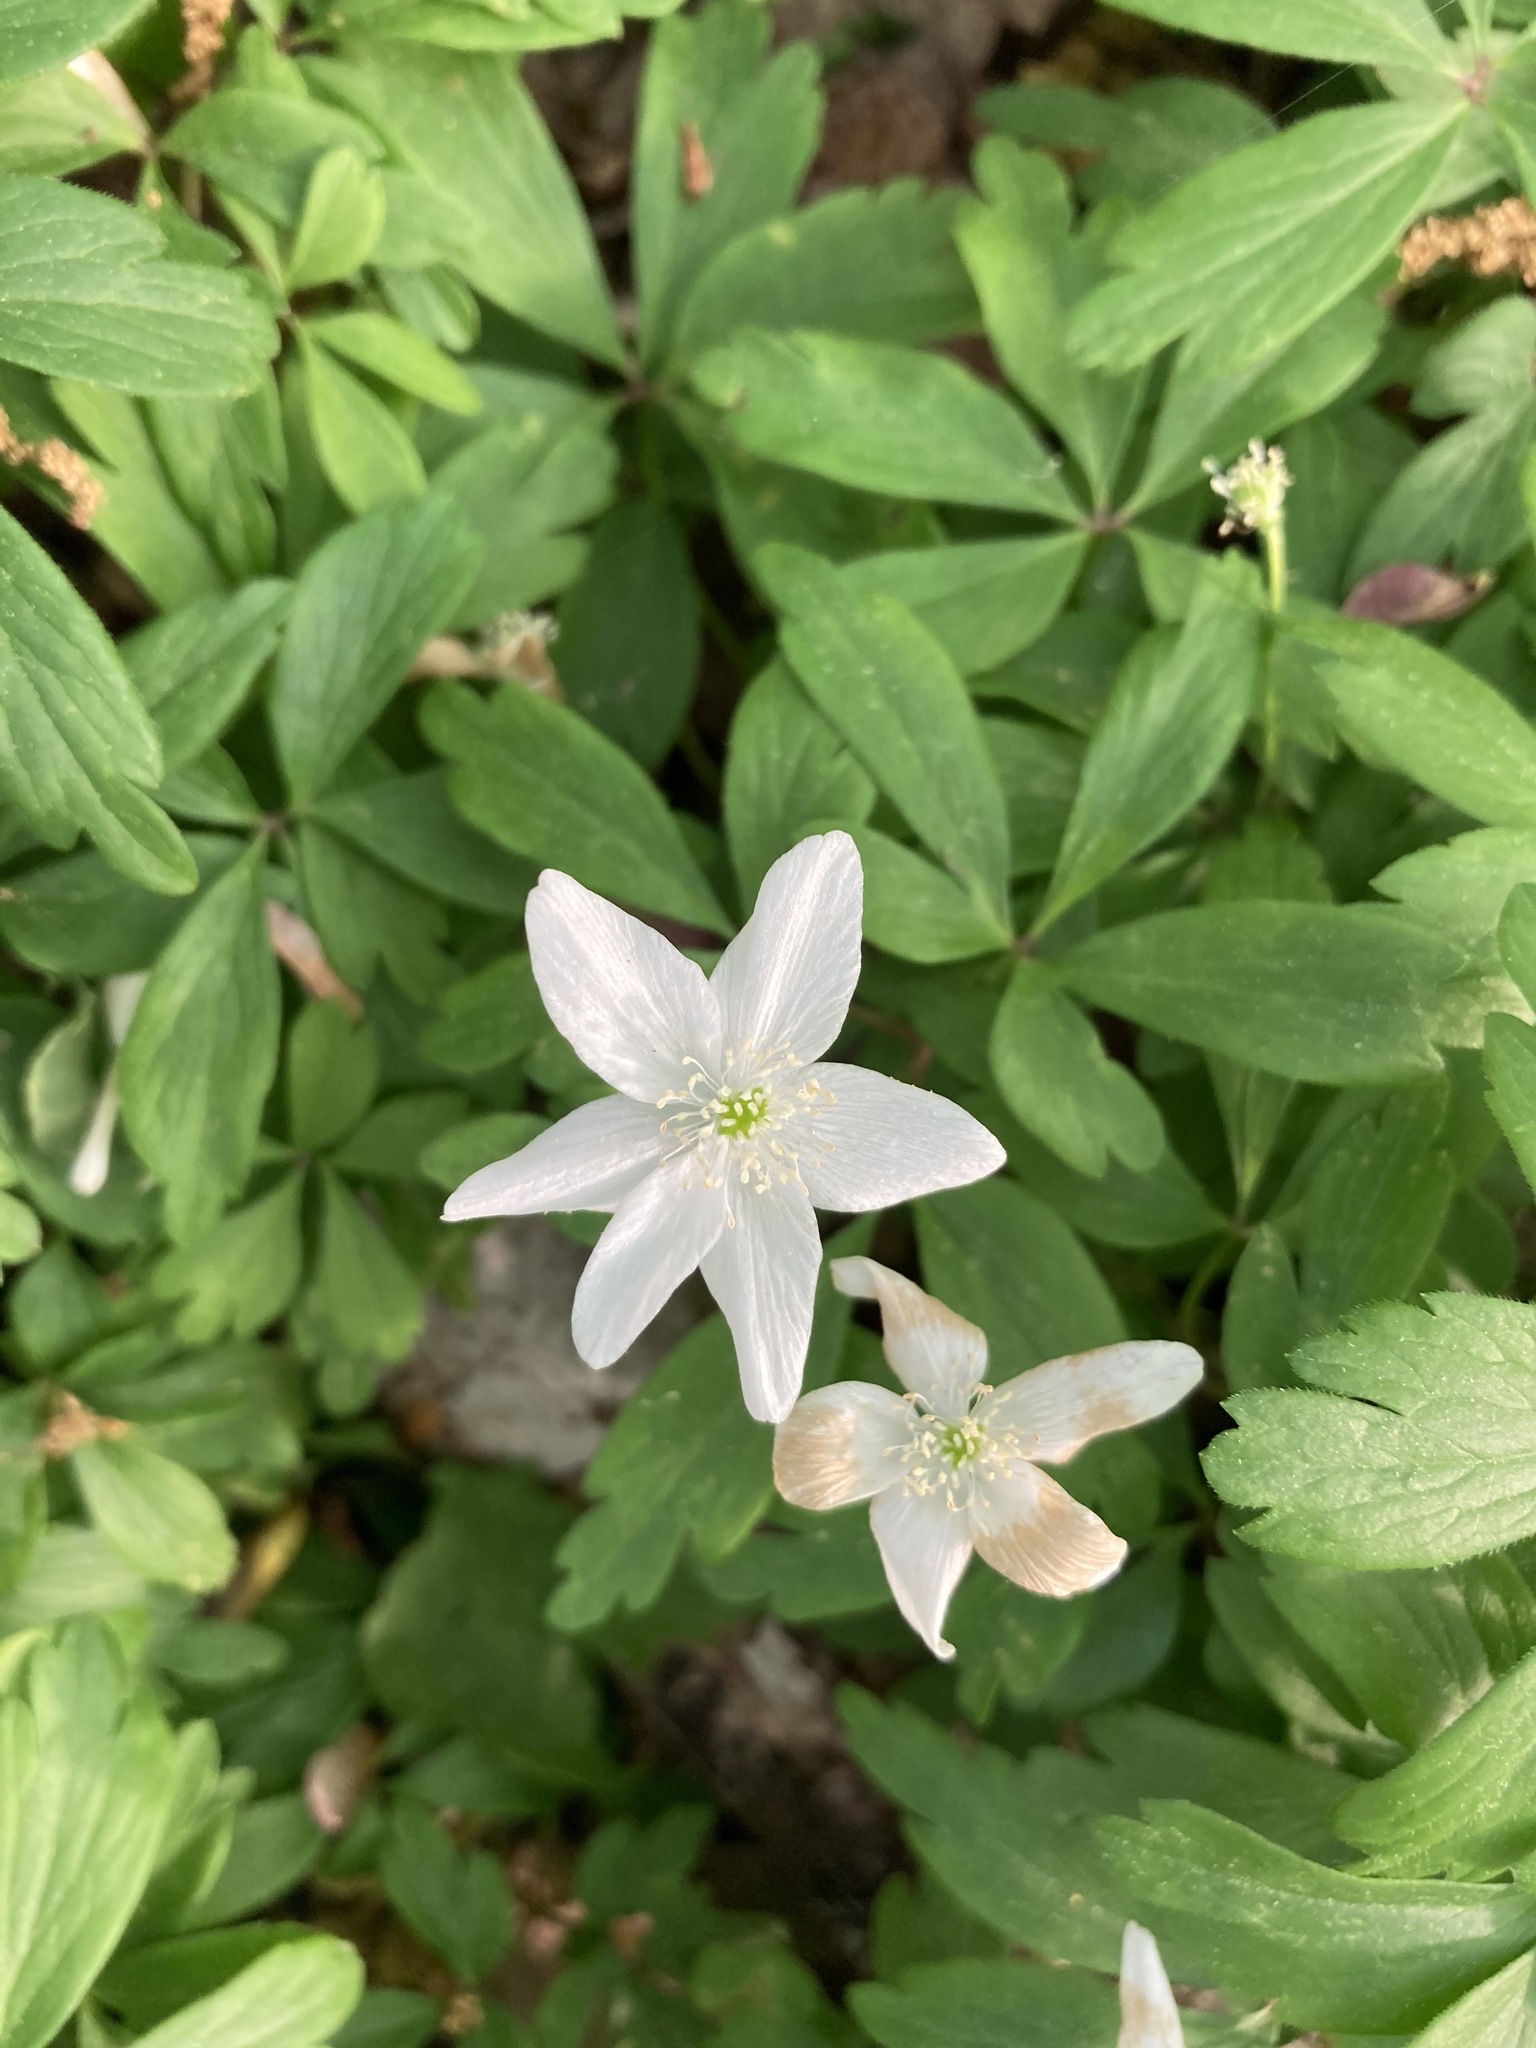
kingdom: Plantae
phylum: Tracheophyta
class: Magnoliopsida
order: Ranunculales
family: Ranunculaceae
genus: Anemone
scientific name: Anemone quinquefolia
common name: Wood anemone
